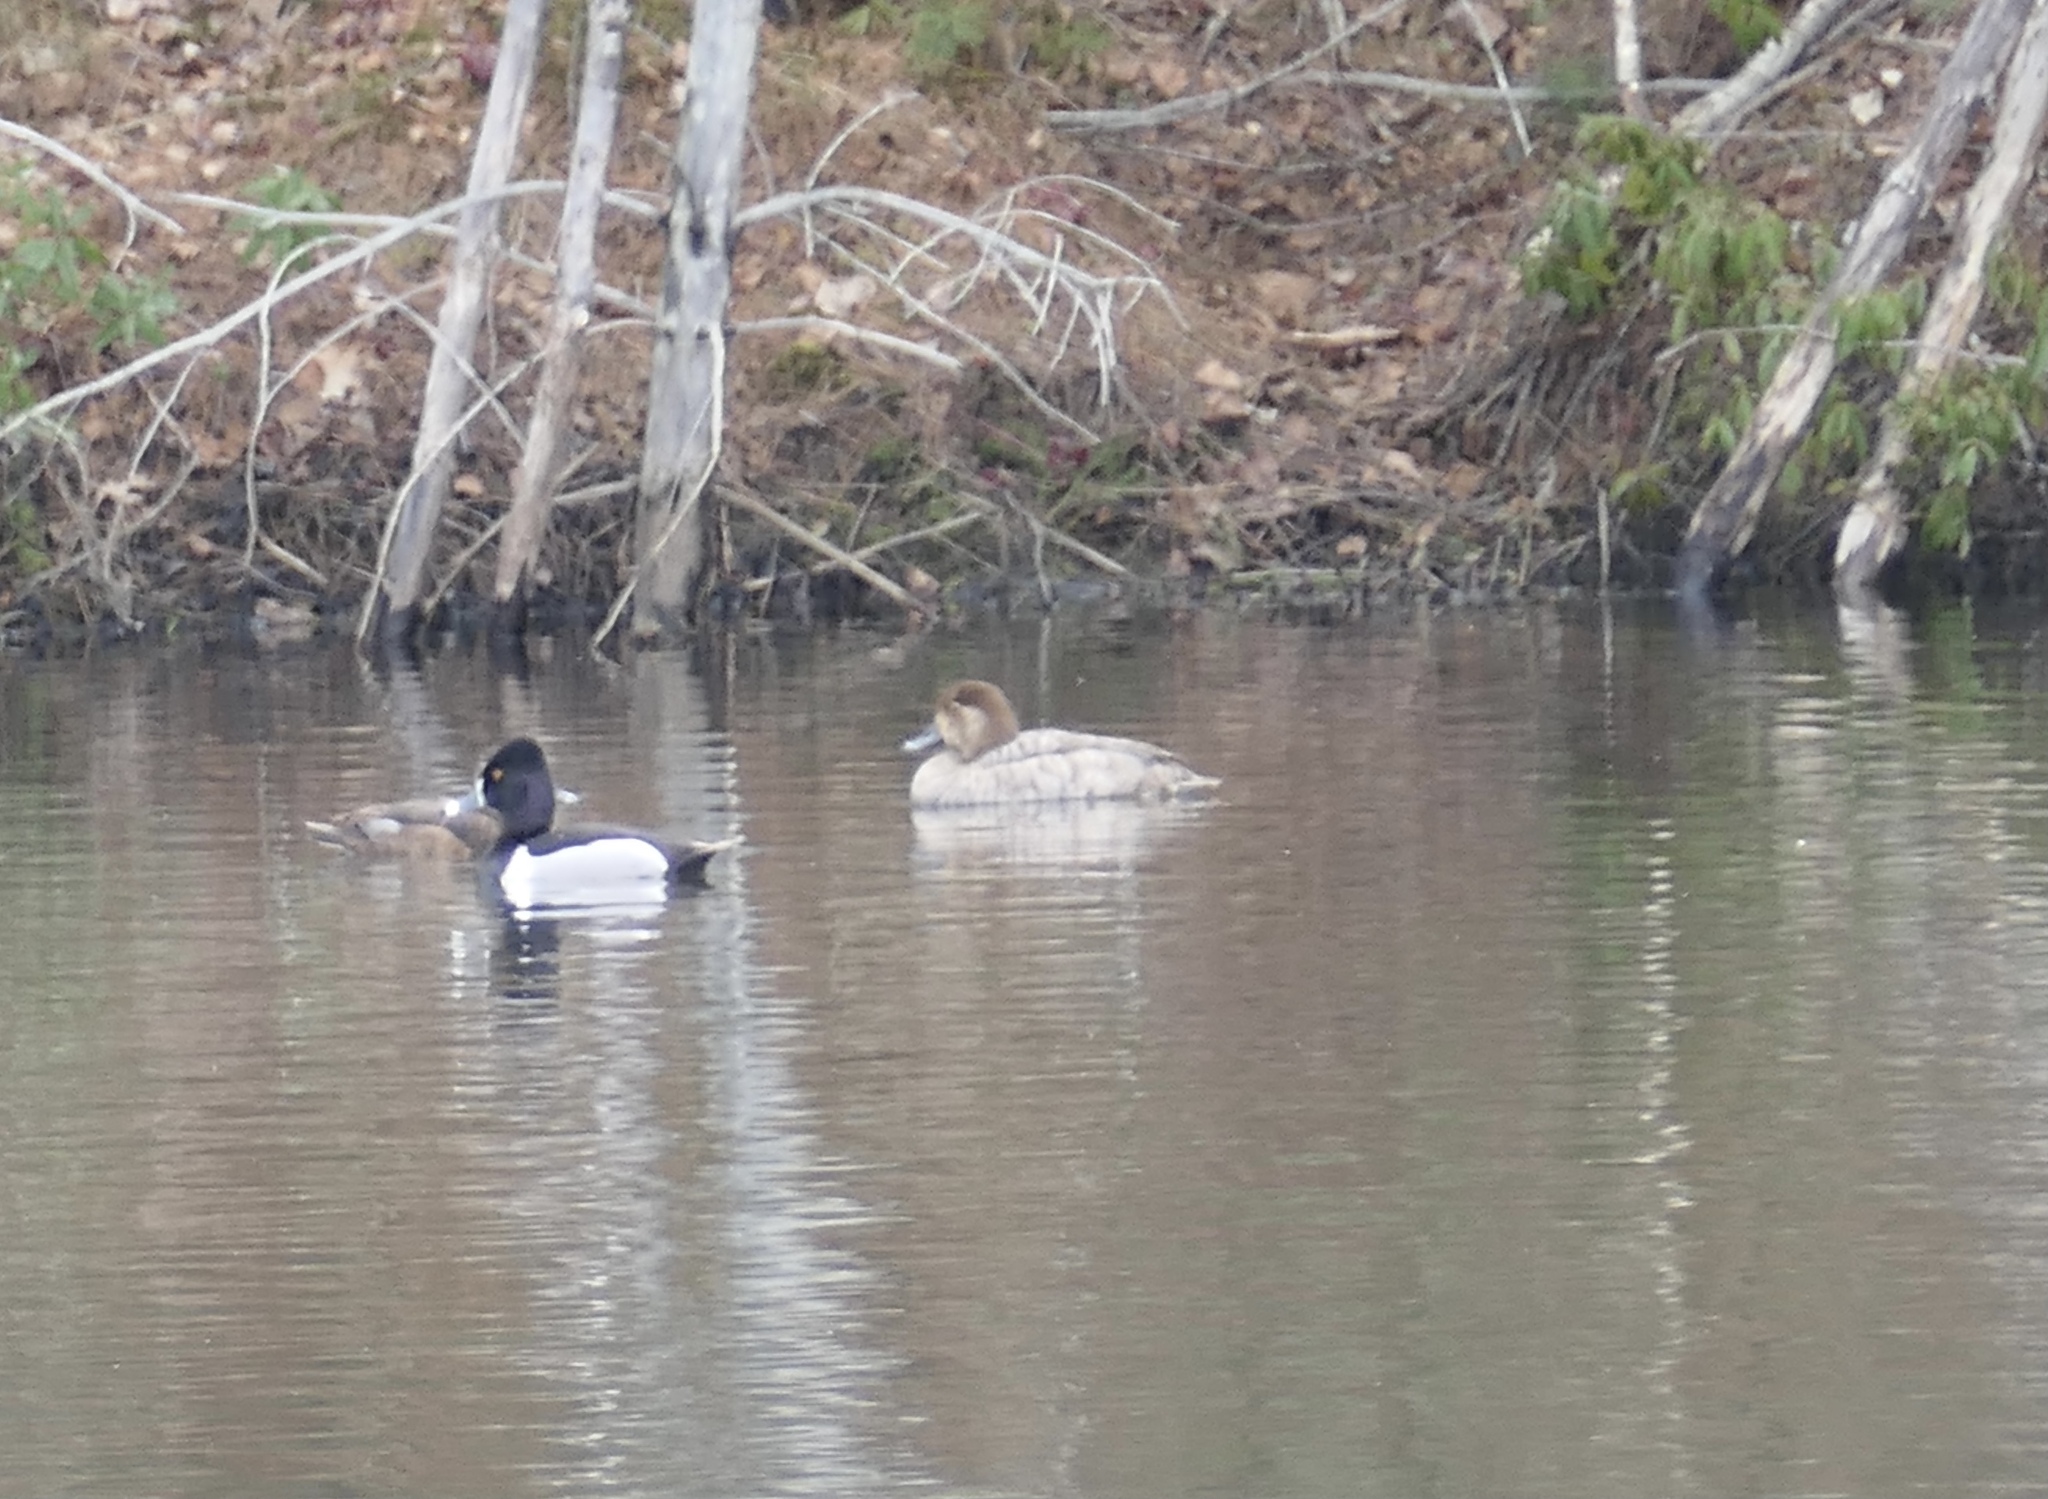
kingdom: Animalia
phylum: Chordata
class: Aves
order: Anseriformes
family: Anatidae
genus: Aythya
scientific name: Aythya americana
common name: Redhead
